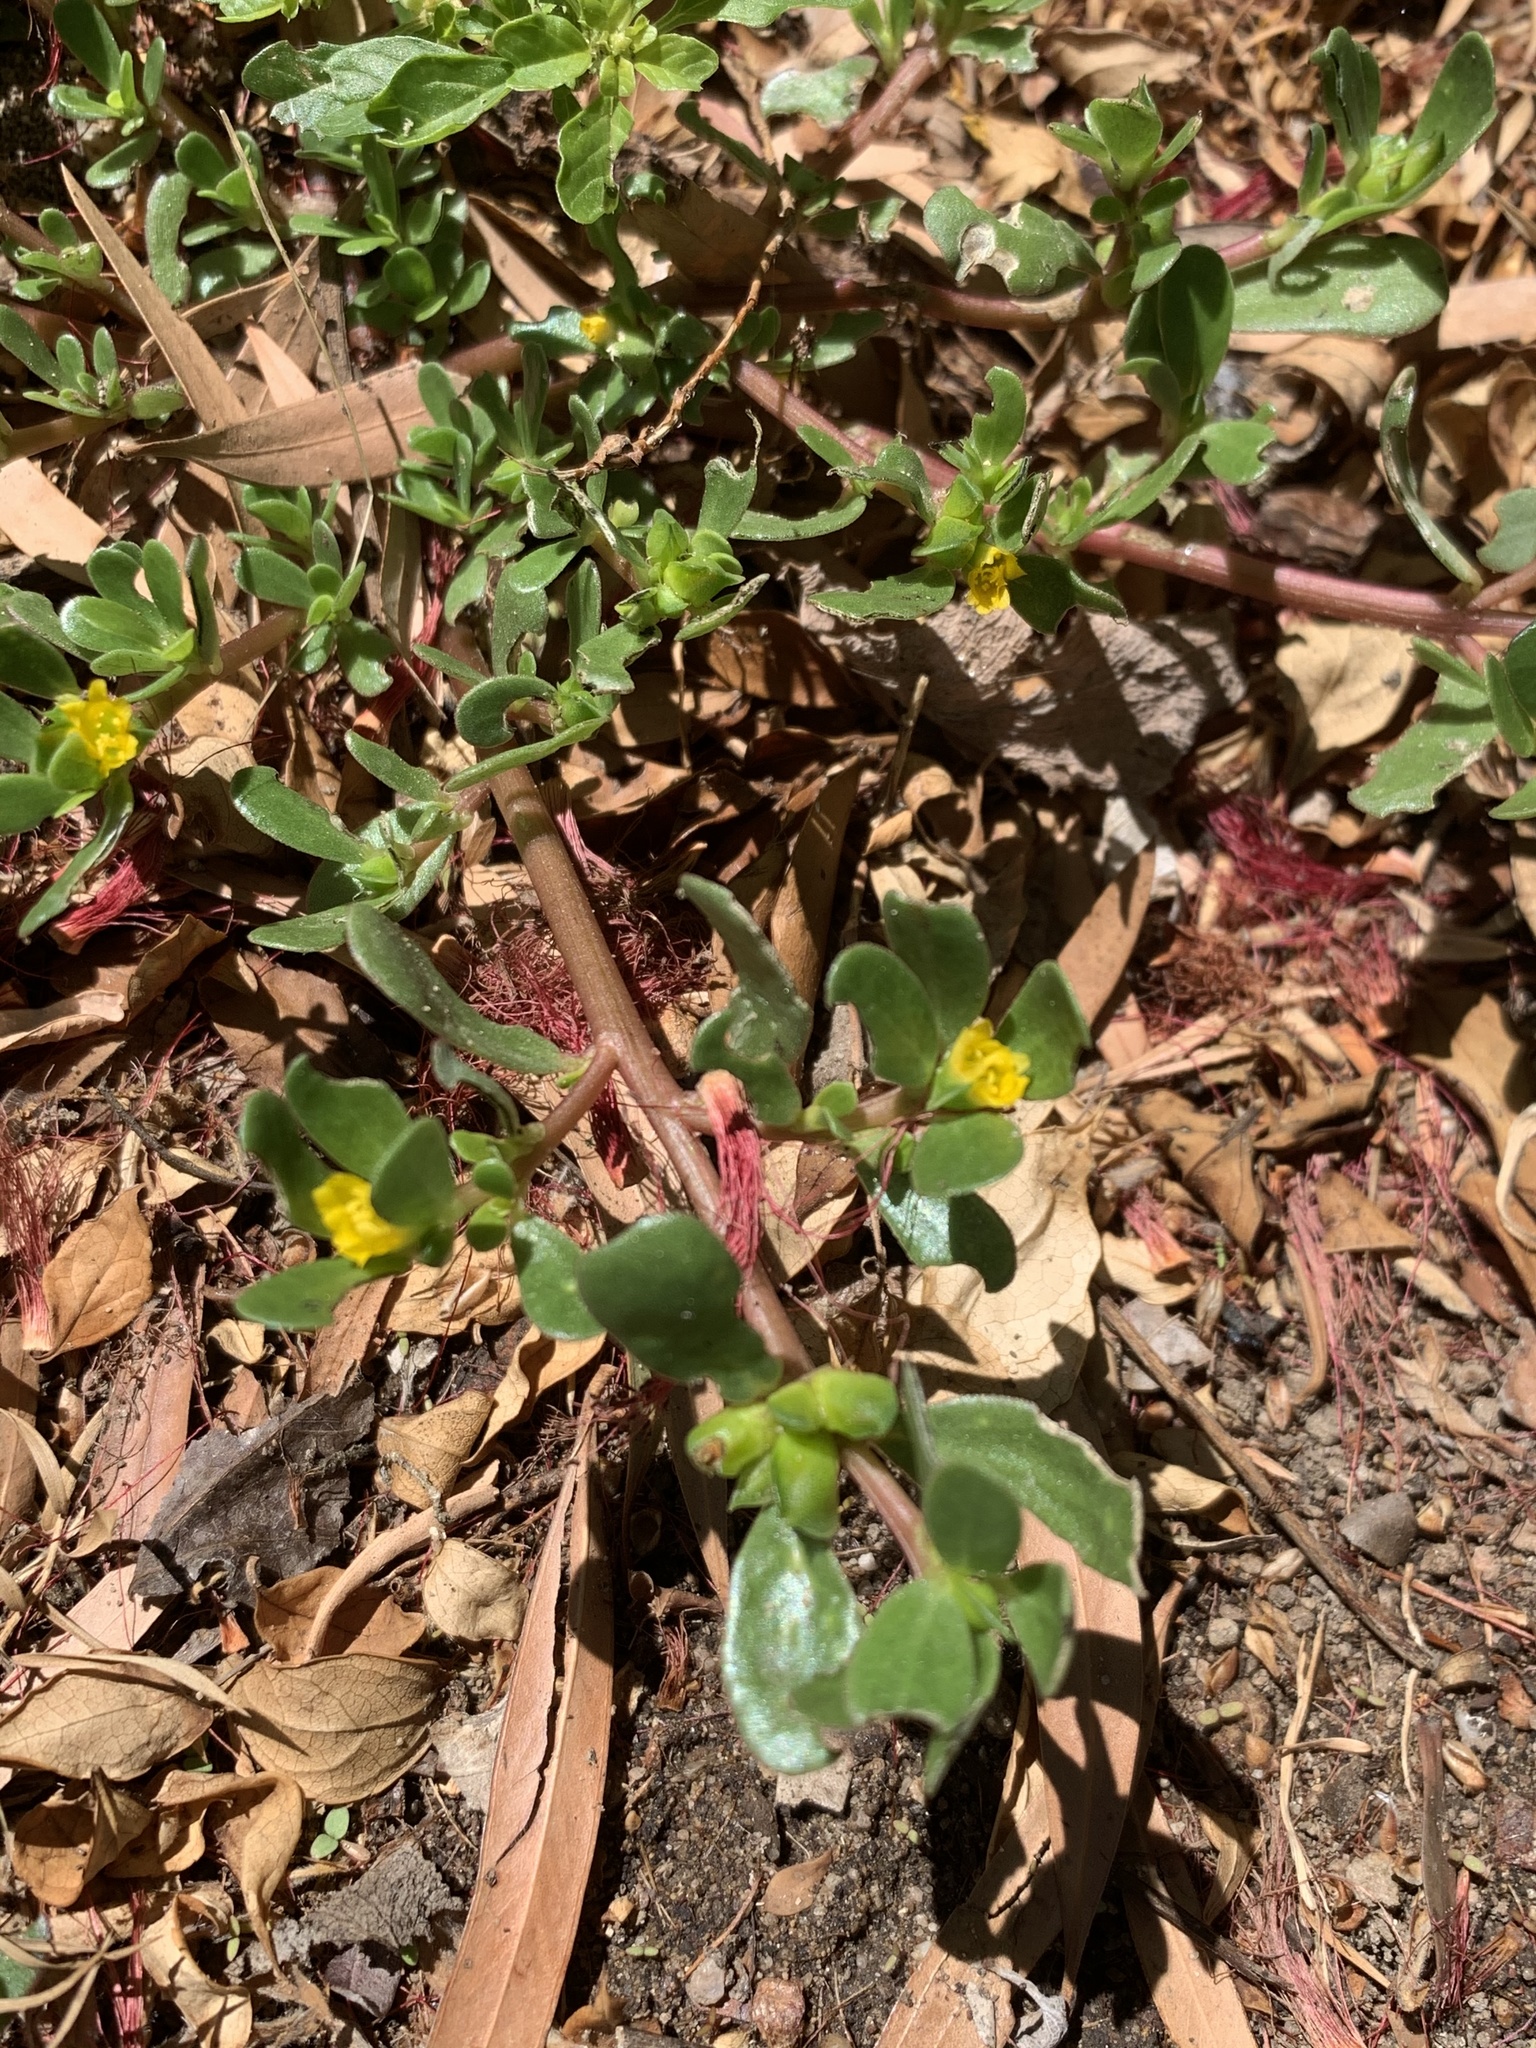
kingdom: Plantae
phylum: Tracheophyta
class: Magnoliopsida
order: Caryophyllales
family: Portulacaceae
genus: Portulaca
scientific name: Portulaca oleracea
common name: Common purslane
